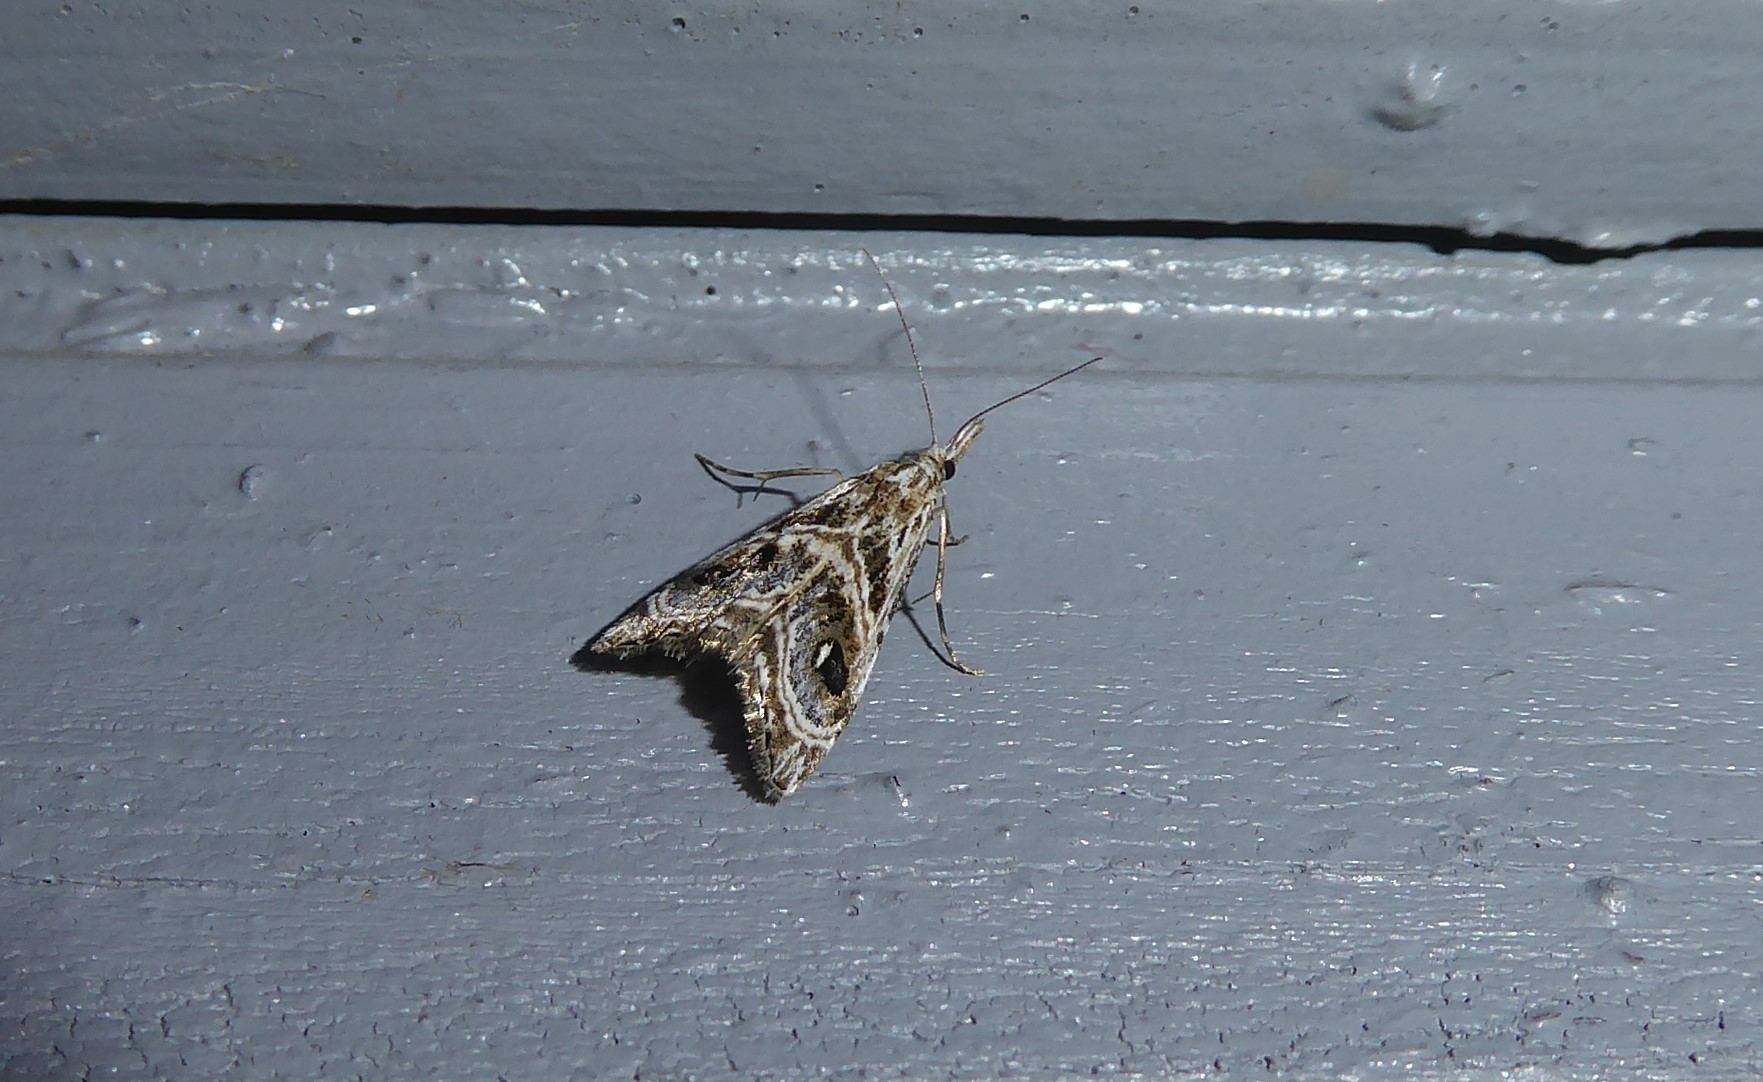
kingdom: Animalia
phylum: Arthropoda
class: Insecta
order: Lepidoptera
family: Crambidae
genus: Gadira
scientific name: Gadira acerella
